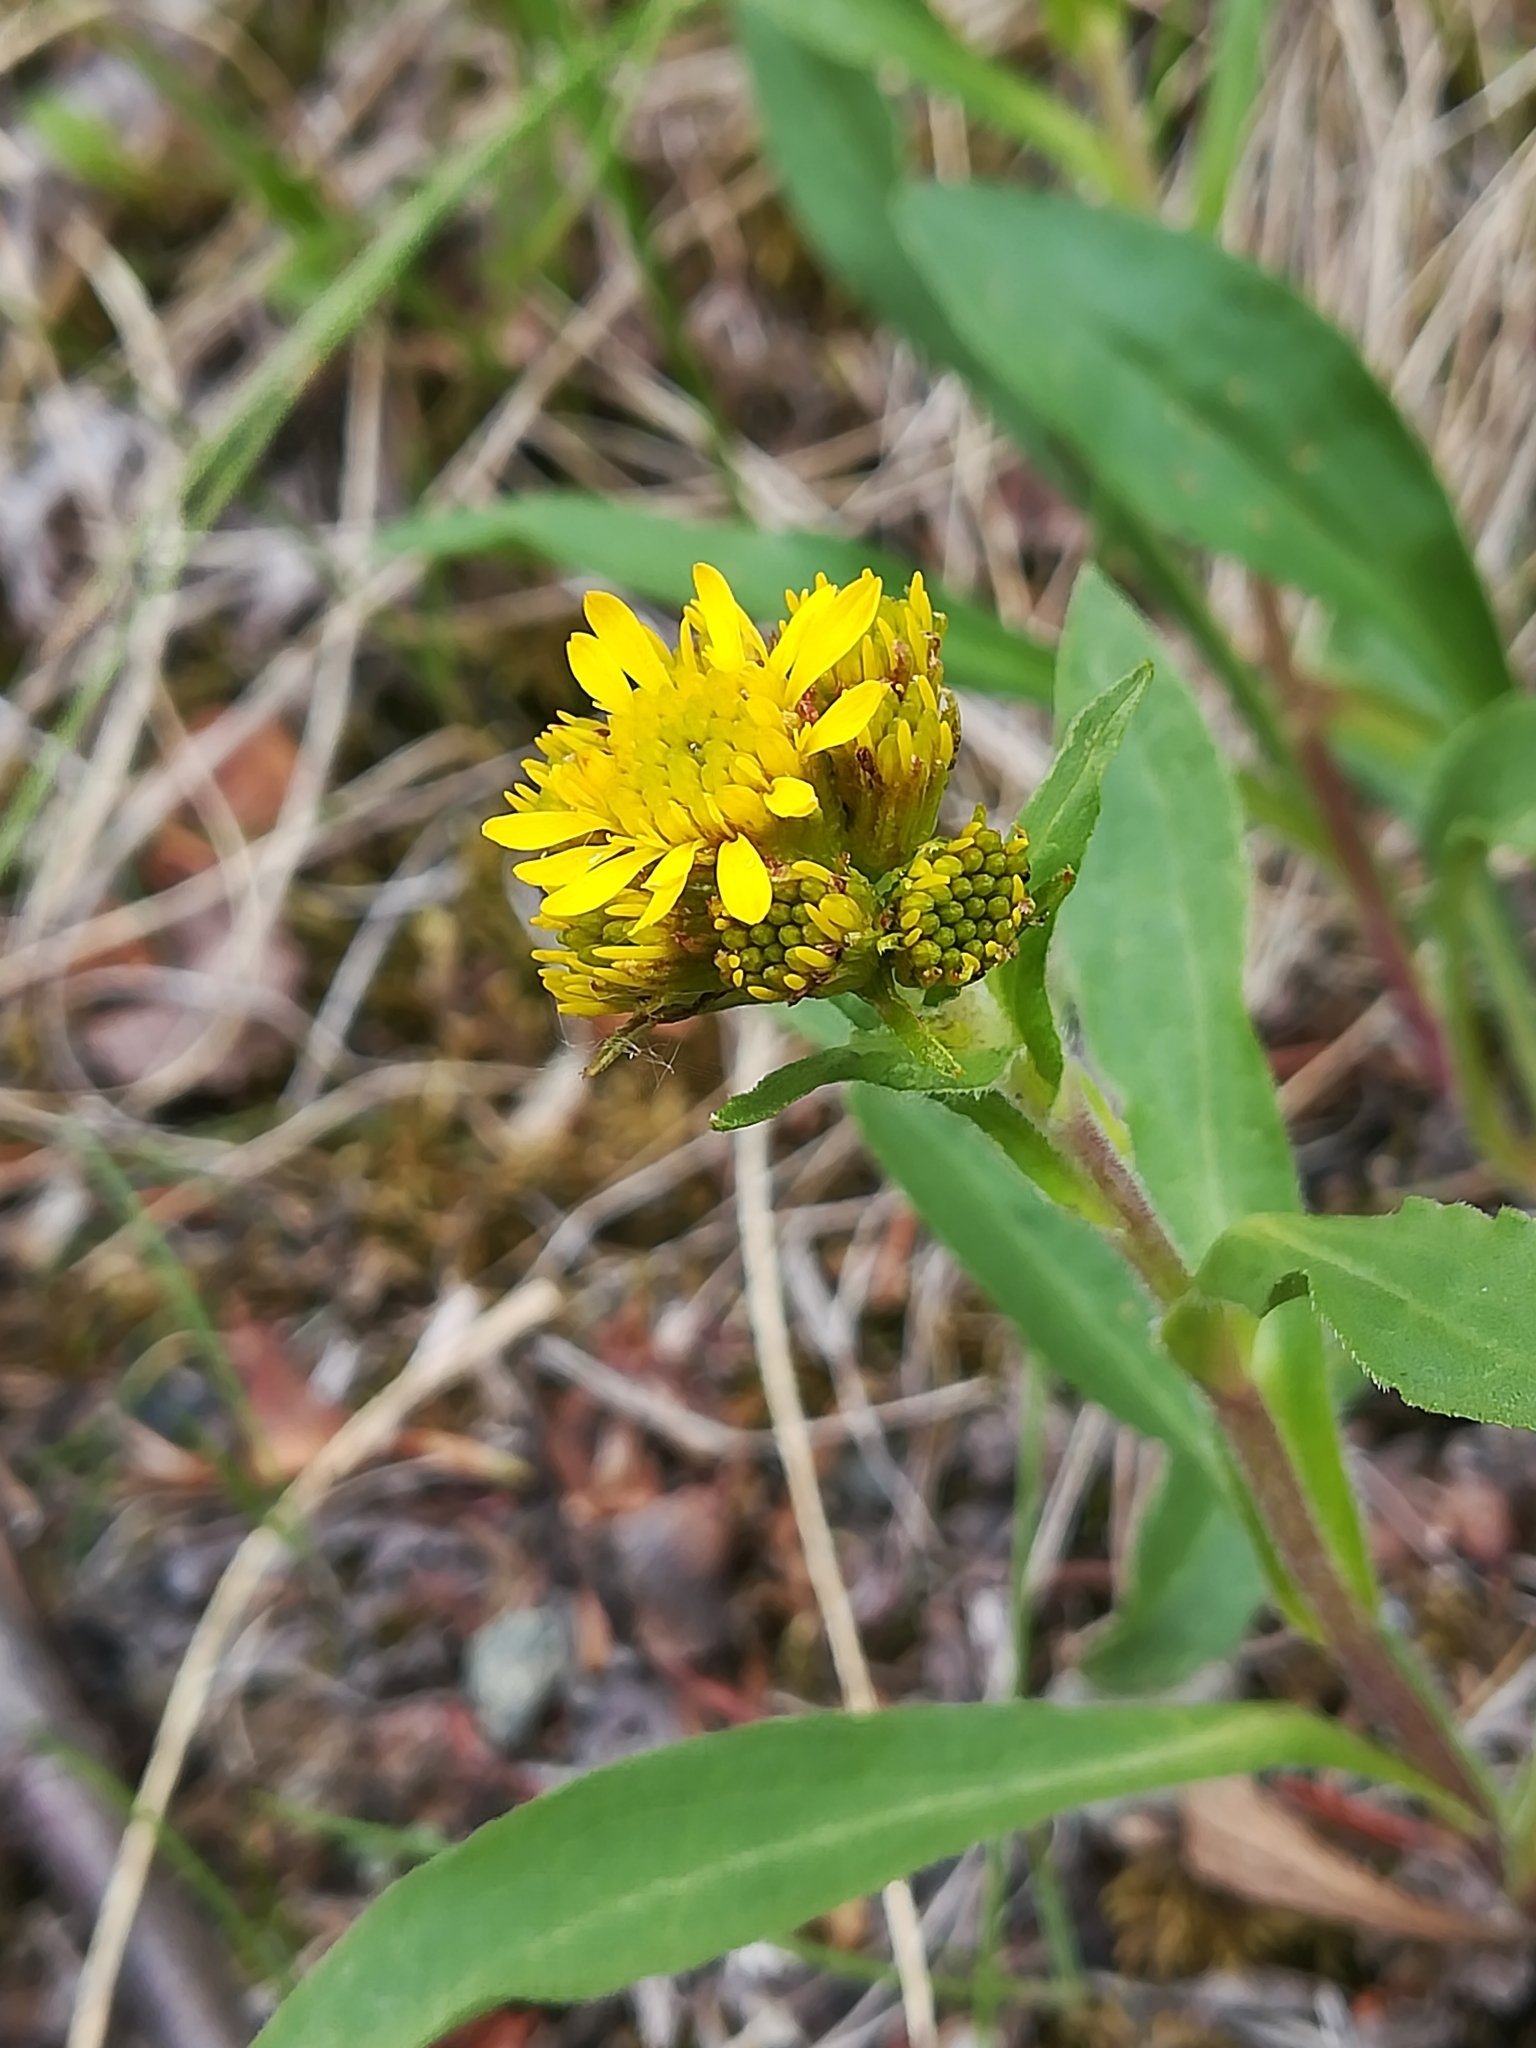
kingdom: Plantae
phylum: Tracheophyta
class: Magnoliopsida
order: Asterales
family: Asteraceae
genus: Solidago
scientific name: Solidago multiradiata
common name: Northern goldenrod
